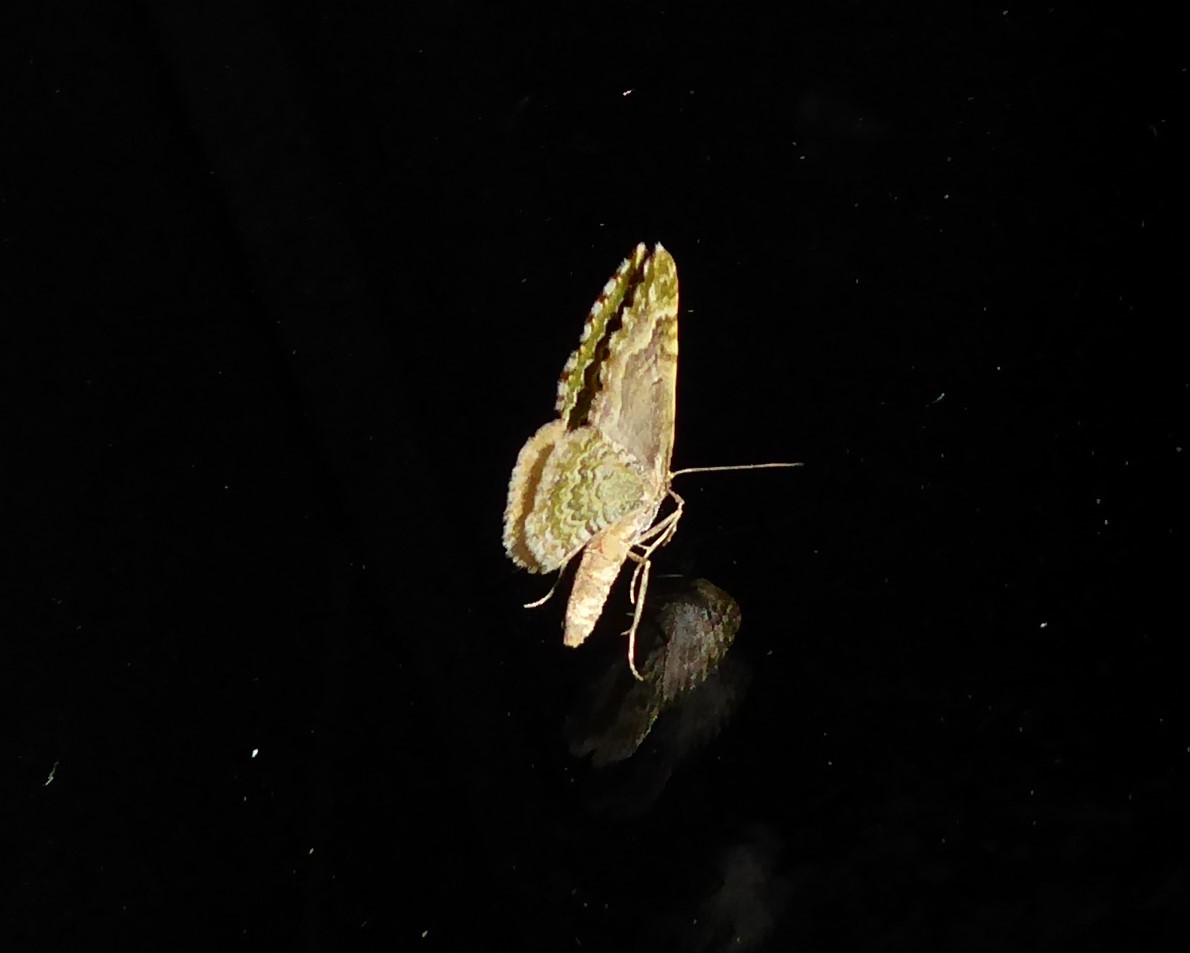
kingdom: Animalia
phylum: Arthropoda
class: Insecta
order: Lepidoptera
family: Geometridae
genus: Asaphodes
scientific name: Asaphodes beata
